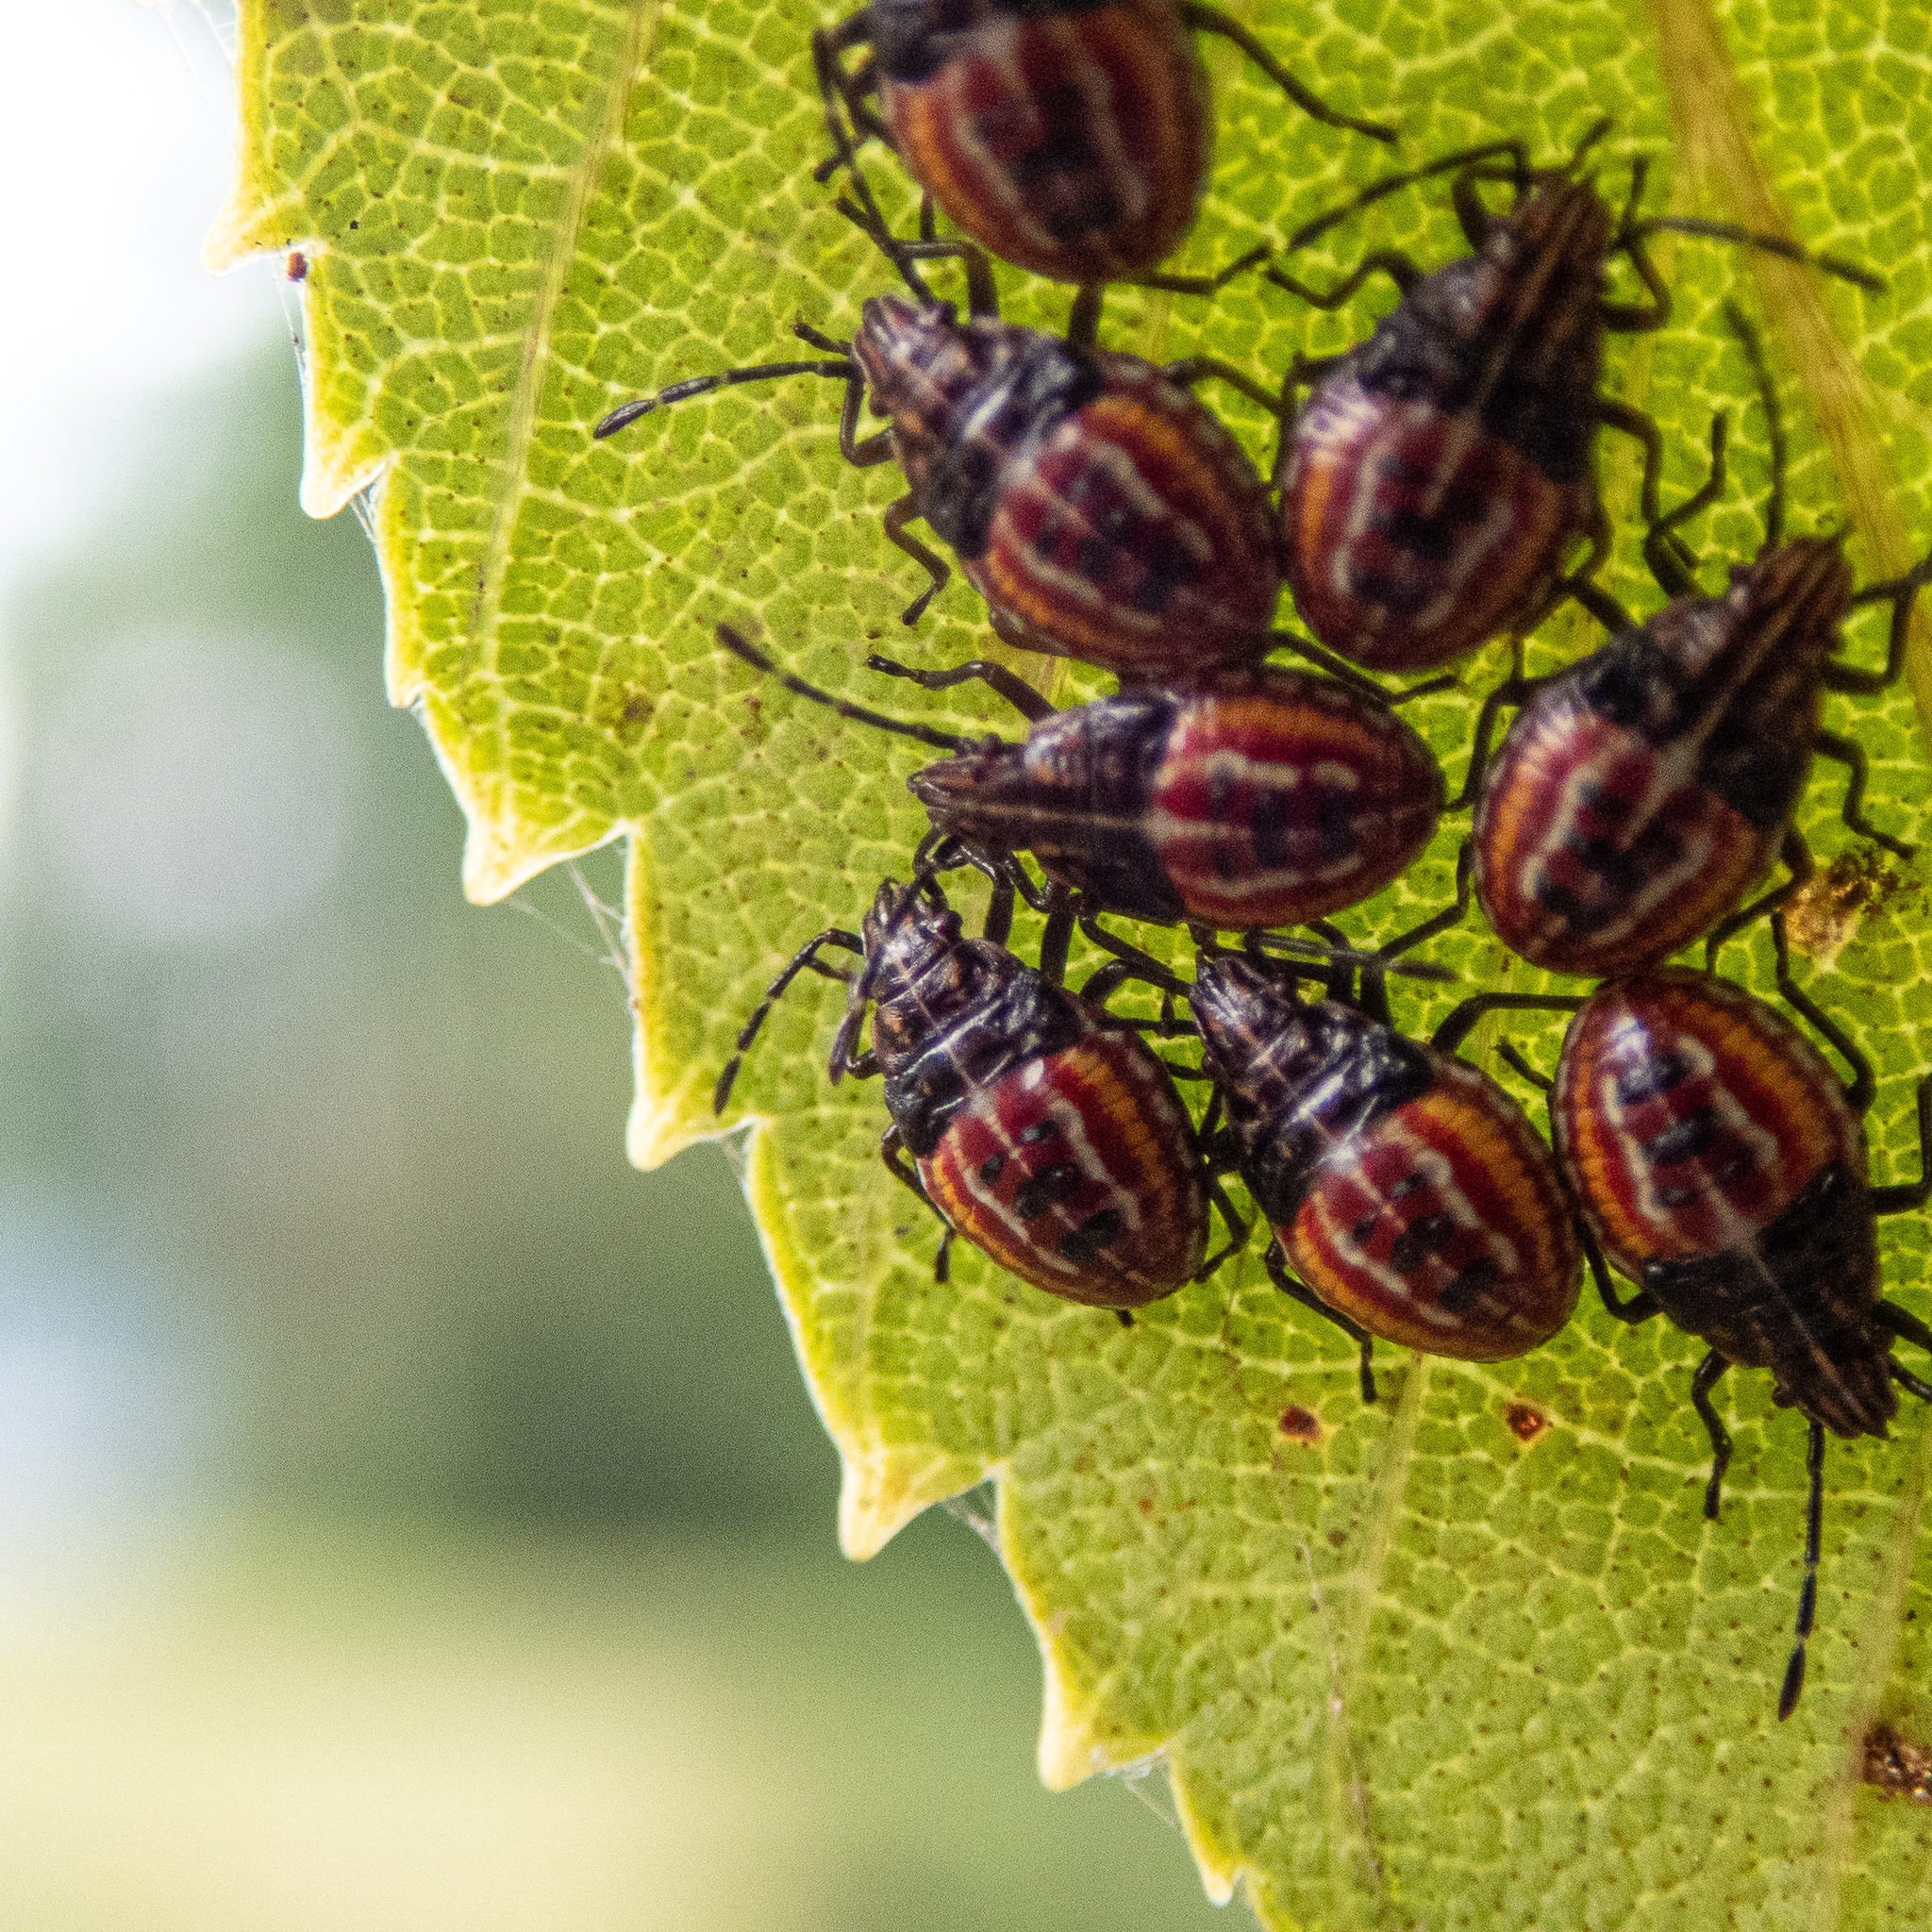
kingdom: Animalia
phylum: Arthropoda
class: Insecta
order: Hemiptera
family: Acanthosomatidae
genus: Elasmucha
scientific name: Elasmucha lateralis
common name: Shield bug
